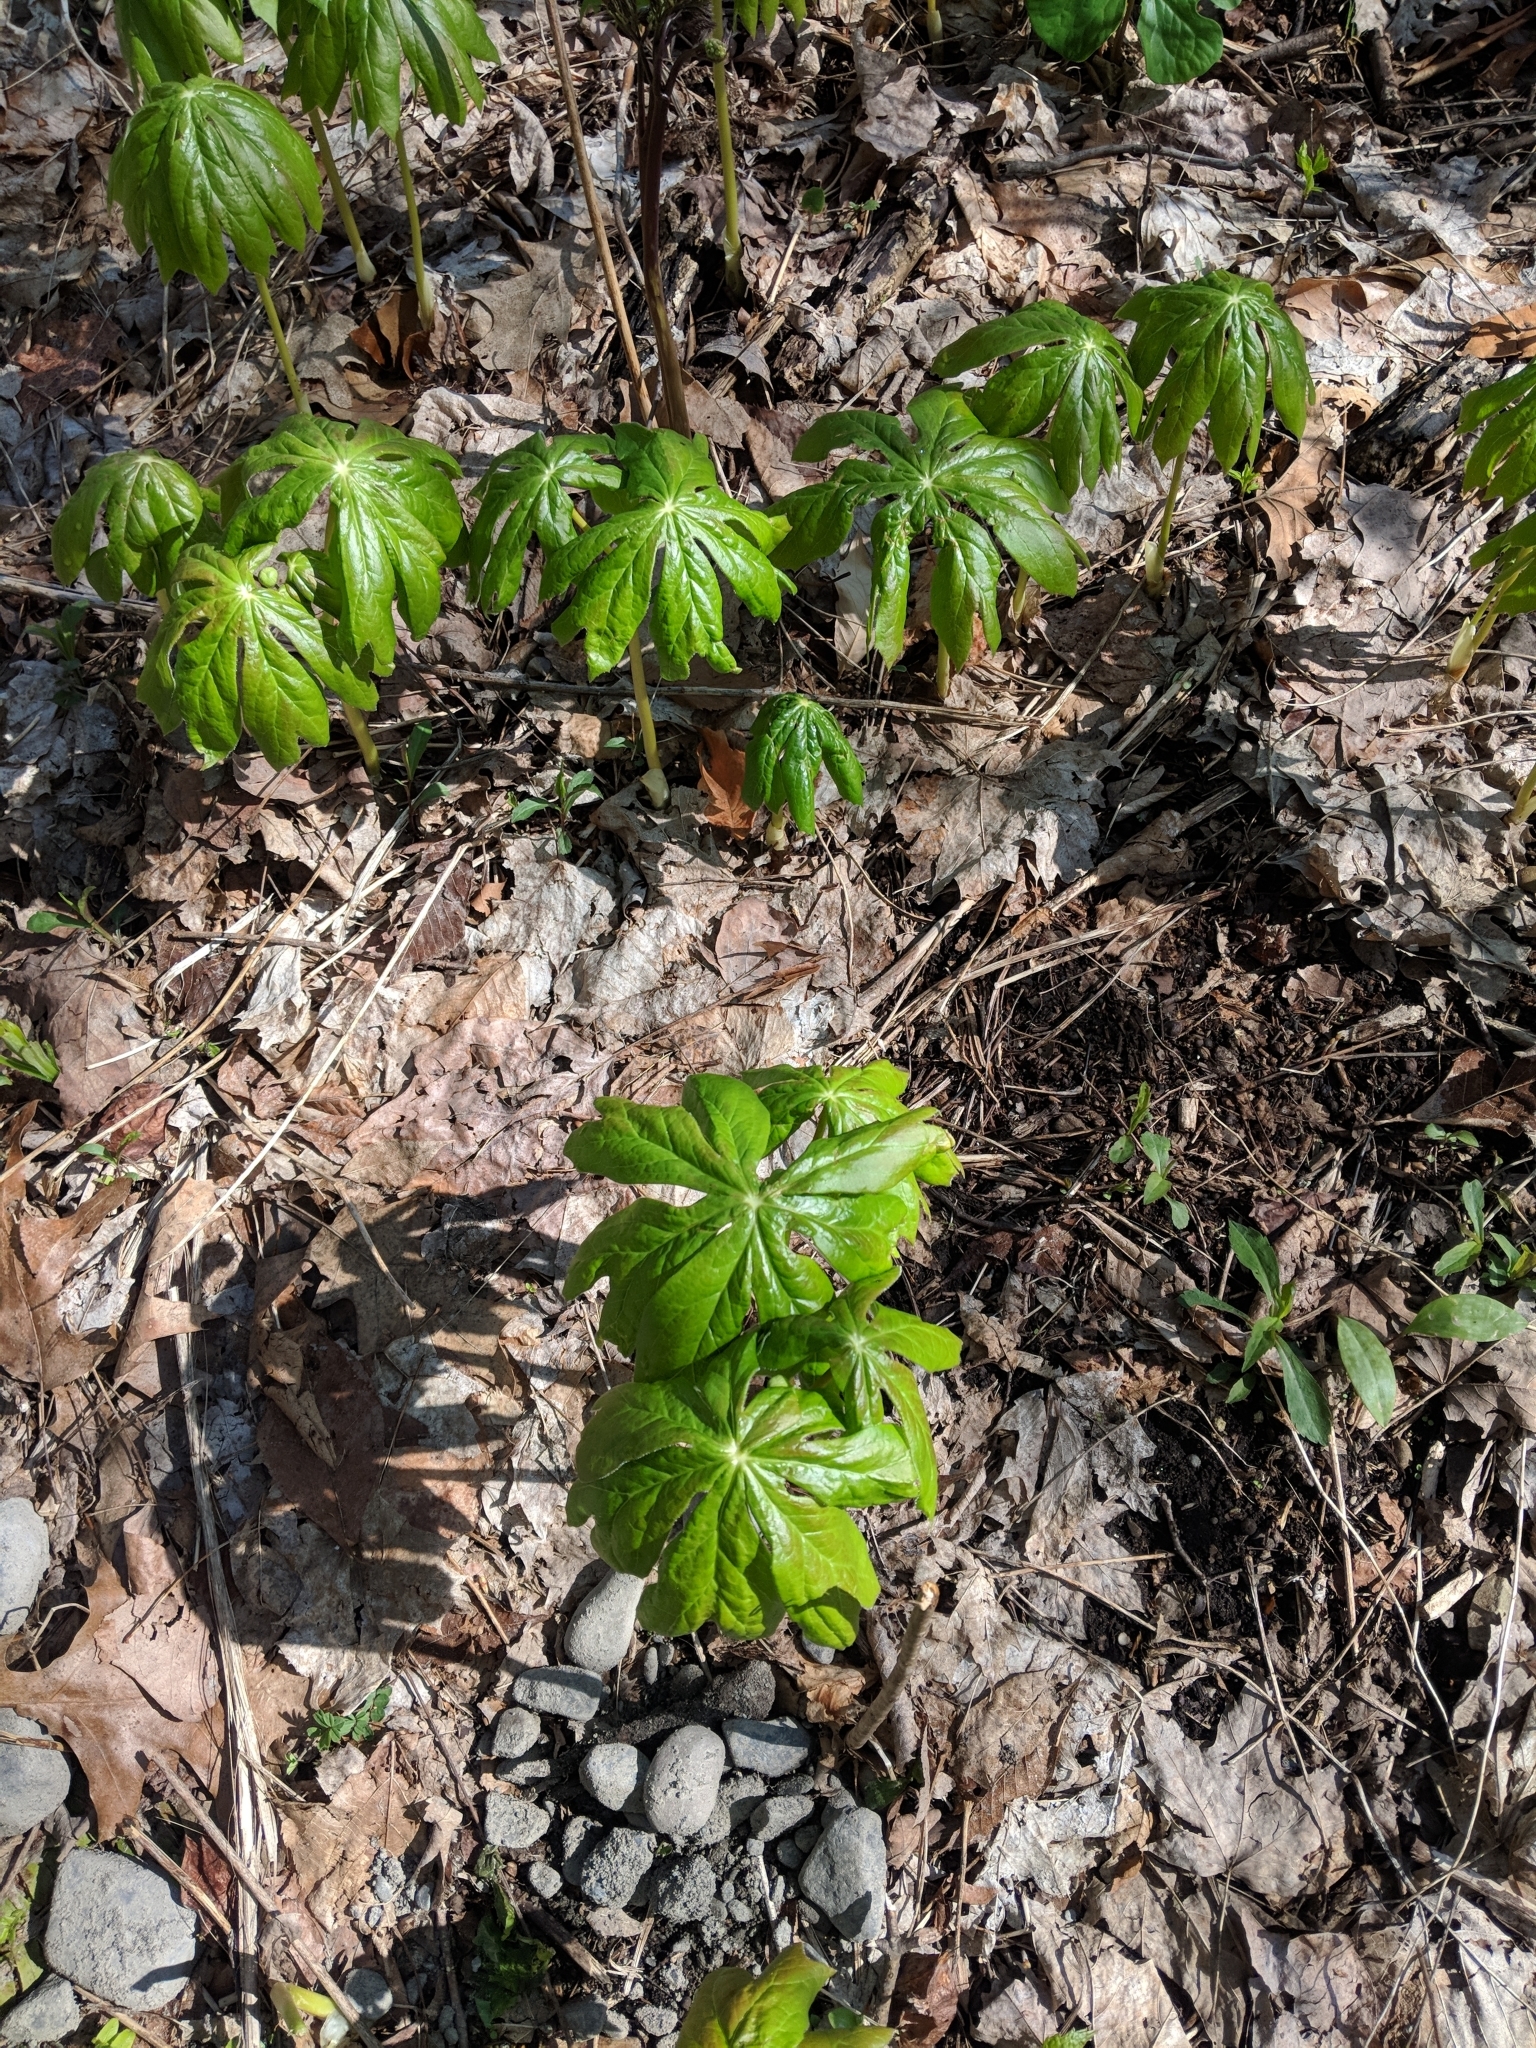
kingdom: Plantae
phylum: Tracheophyta
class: Magnoliopsida
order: Ranunculales
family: Berberidaceae
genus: Podophyllum
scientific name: Podophyllum peltatum
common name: Wild mandrake
